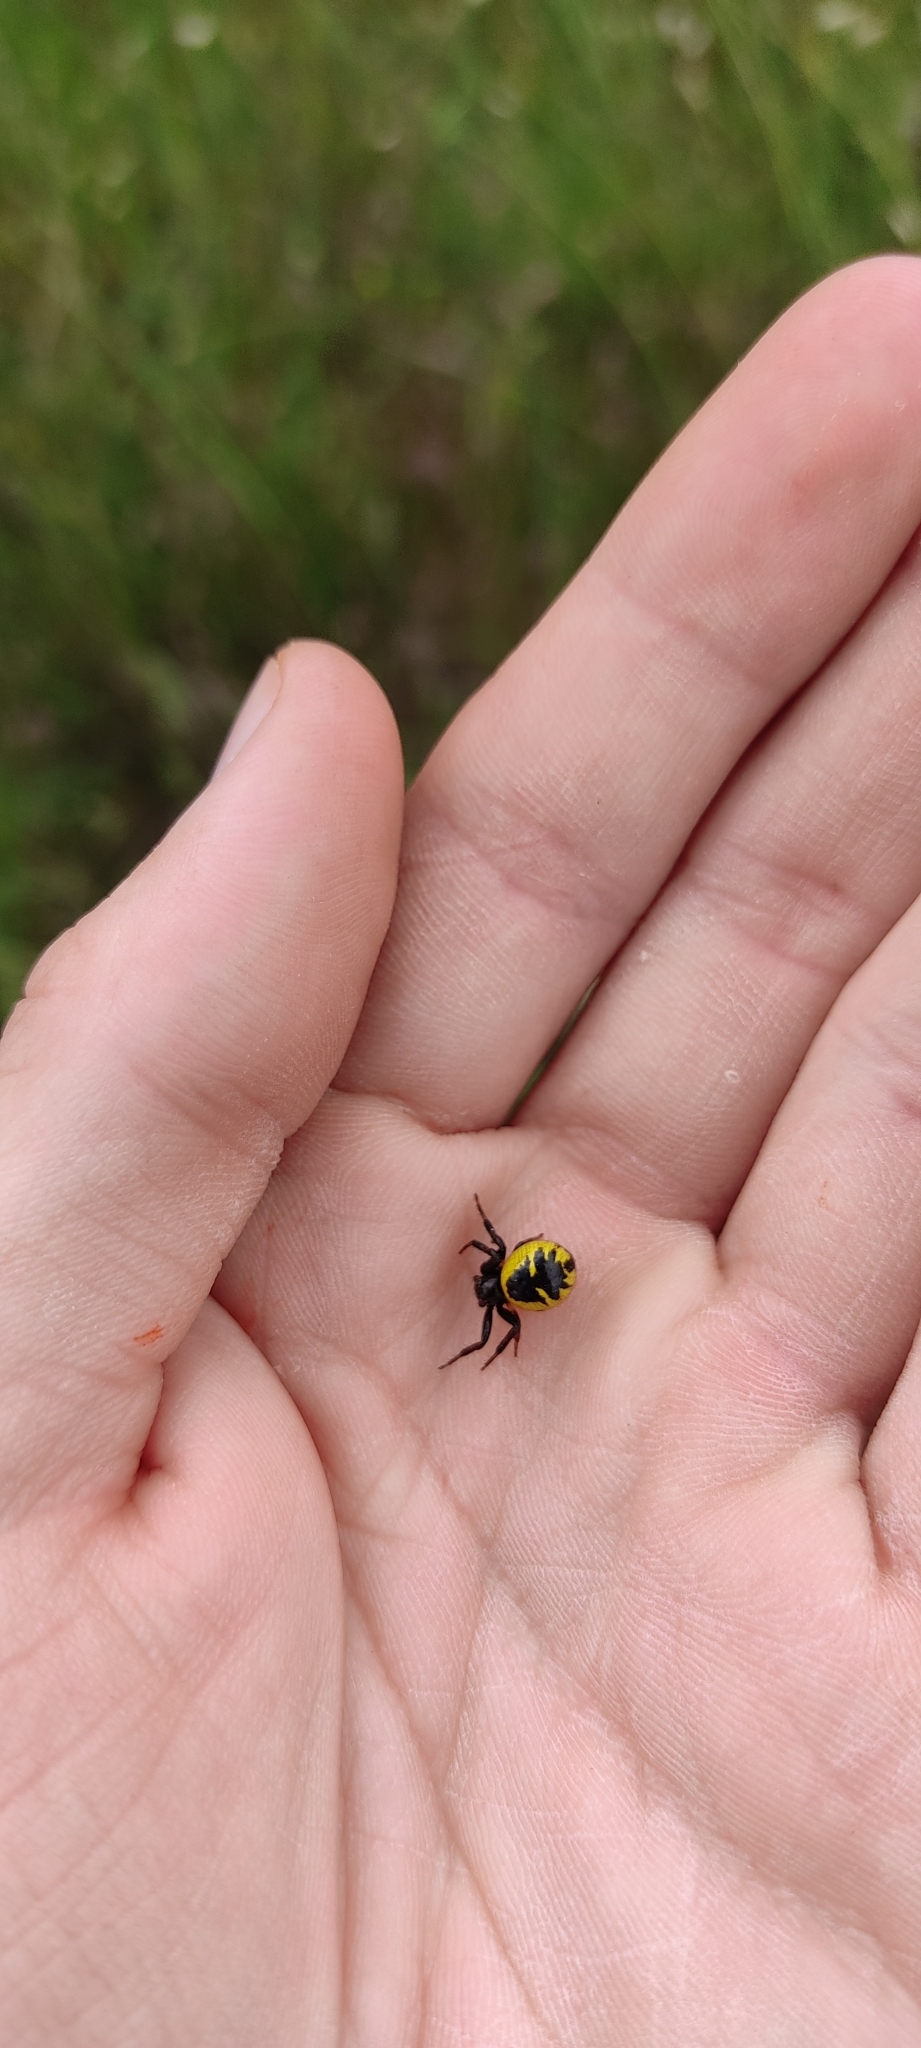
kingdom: Animalia
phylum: Arthropoda
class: Arachnida
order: Araneae
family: Thomisidae
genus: Synema
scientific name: Synema globosum
